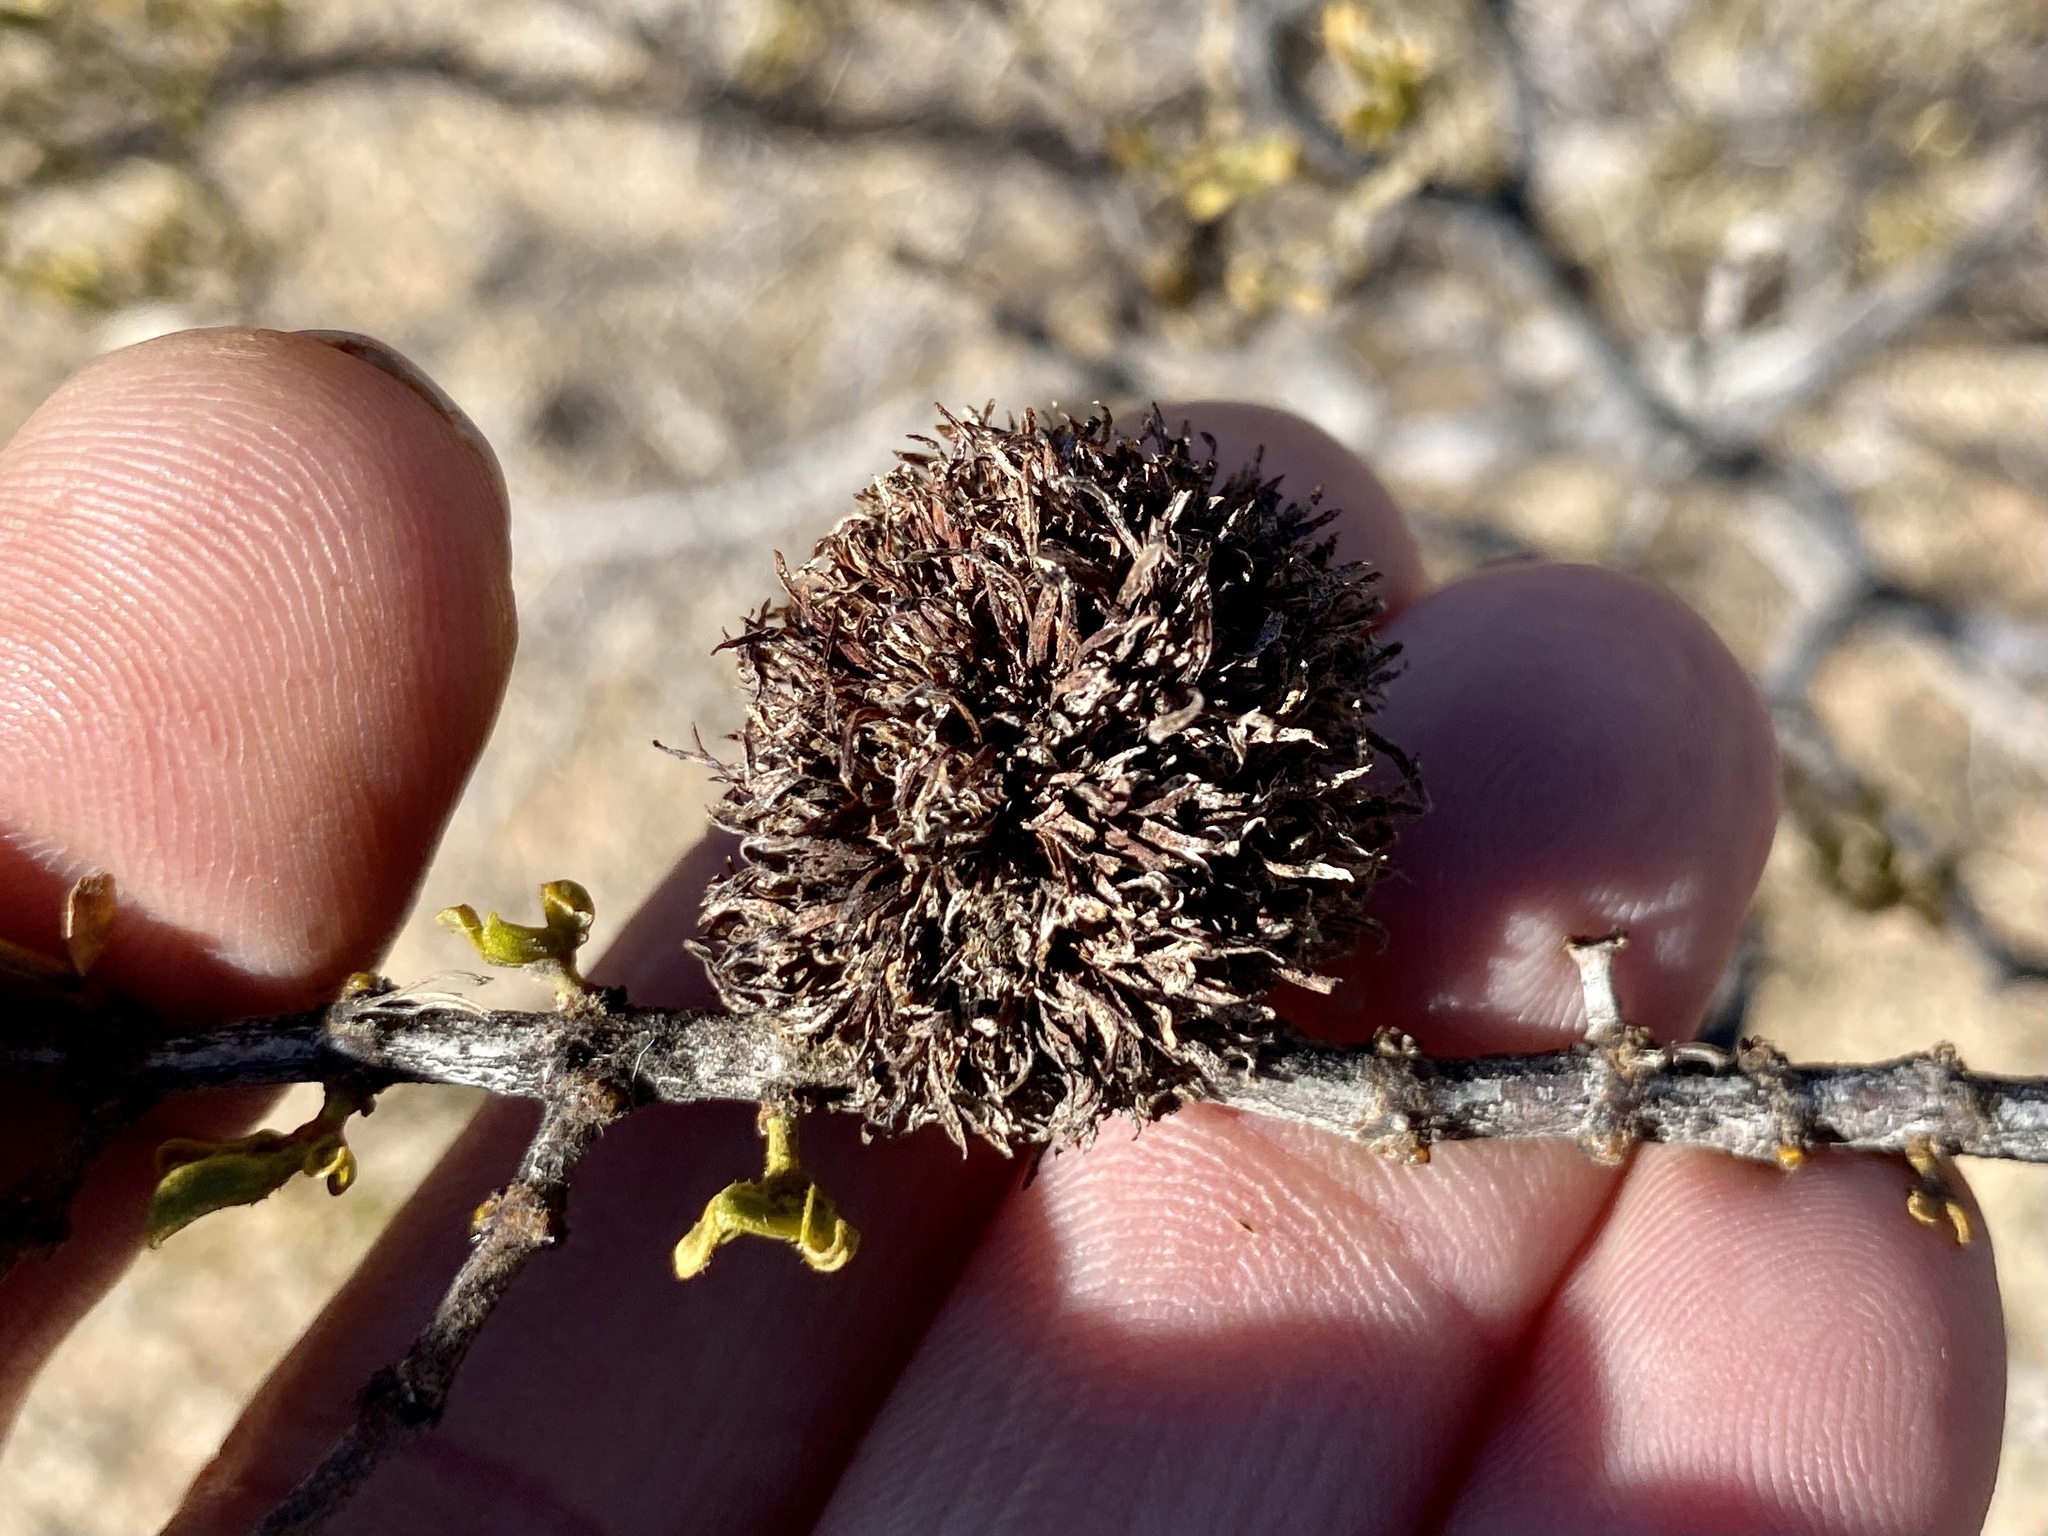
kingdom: Animalia
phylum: Arthropoda
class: Insecta
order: Diptera
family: Cecidomyiidae
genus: Asphondylia
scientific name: Asphondylia auripila
